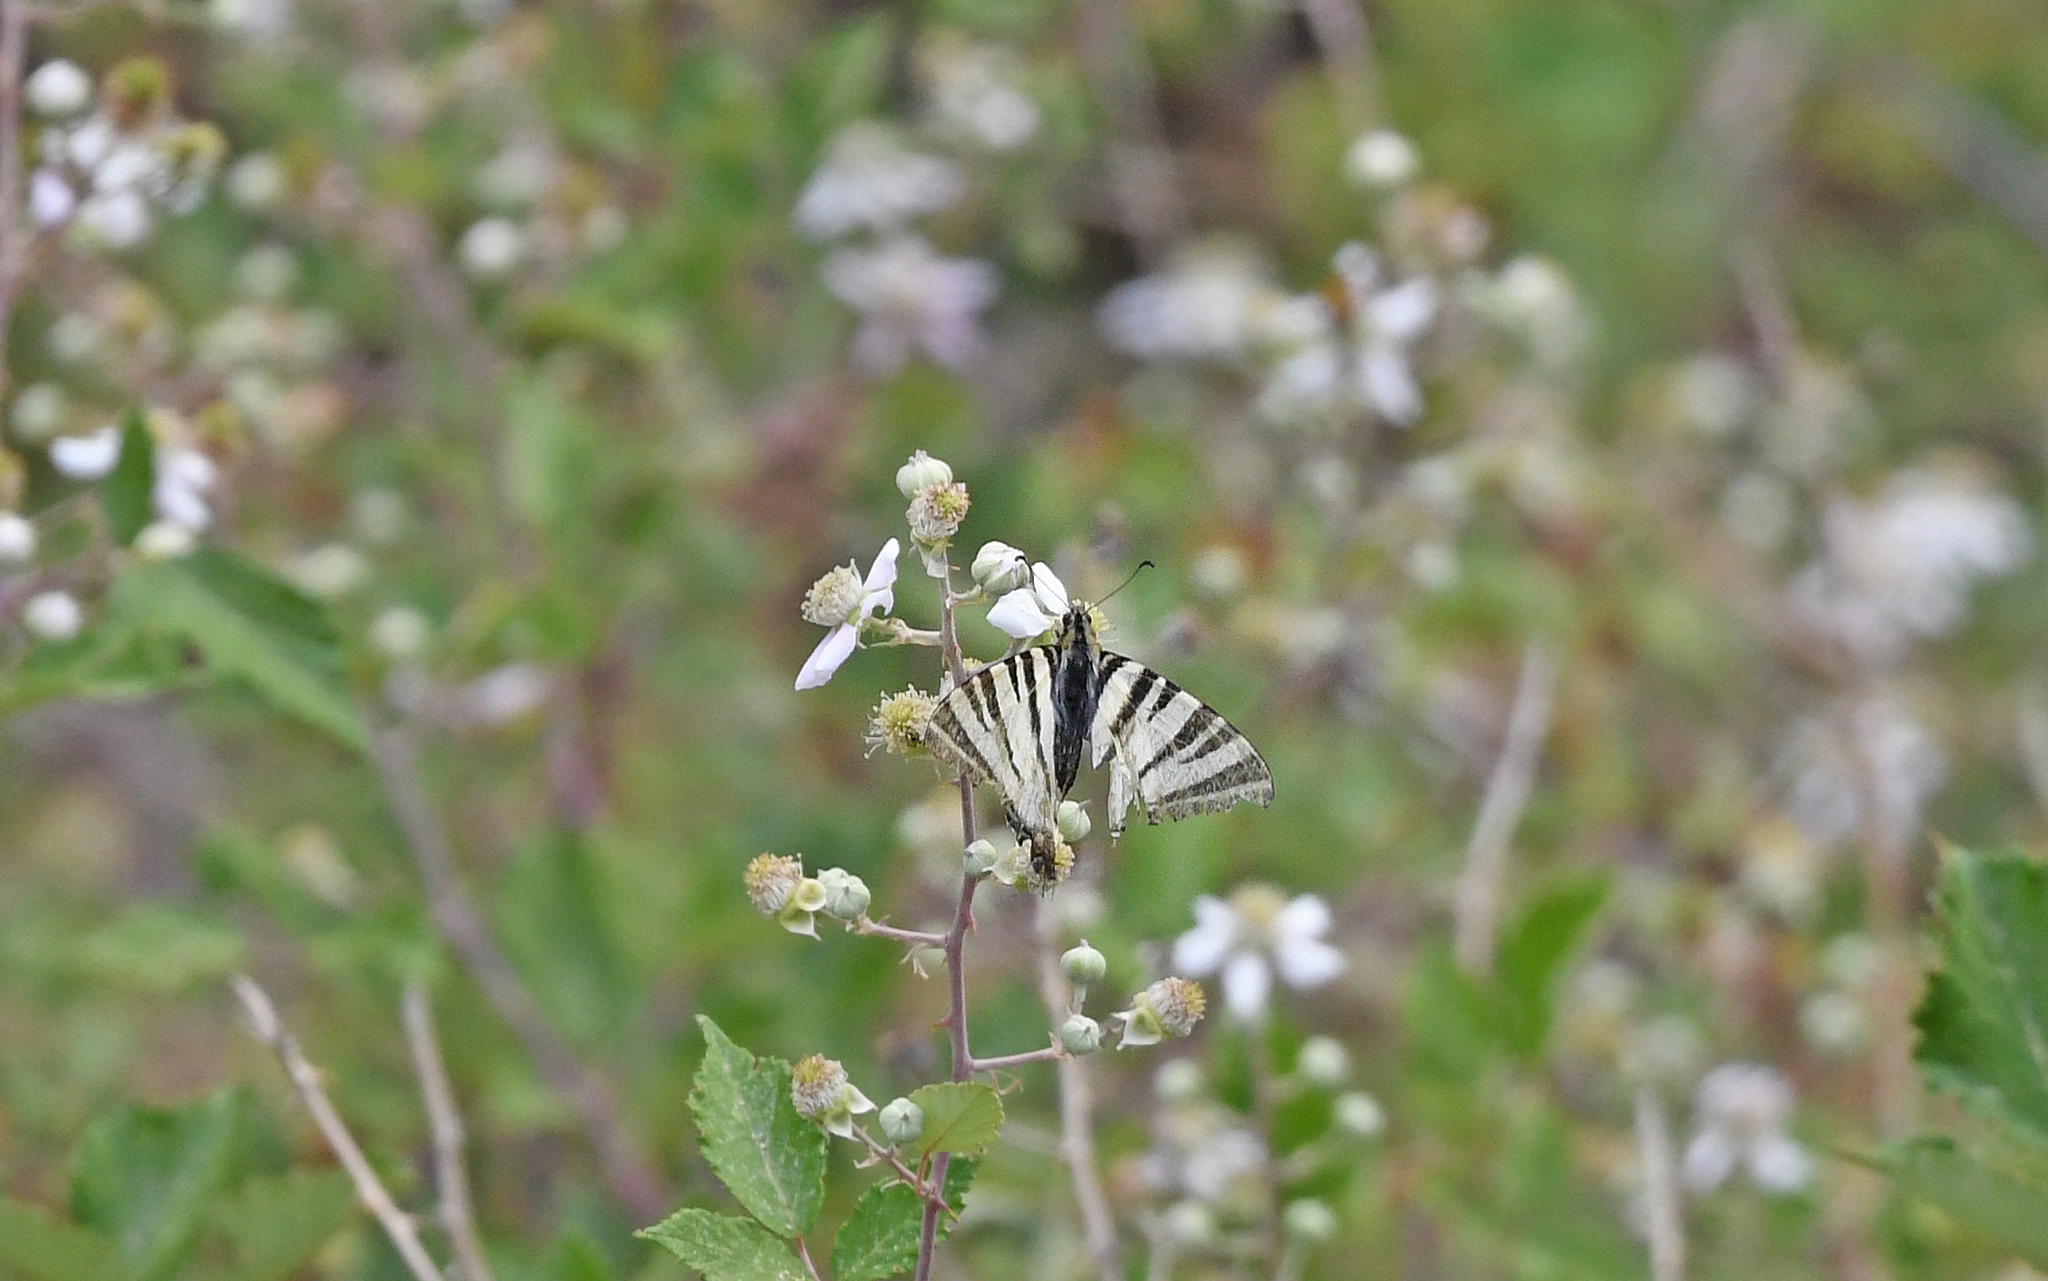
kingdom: Animalia
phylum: Arthropoda
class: Insecta
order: Lepidoptera
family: Papilionidae
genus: Iphiclides
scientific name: Iphiclides podalirius
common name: Scarce swallowtail
